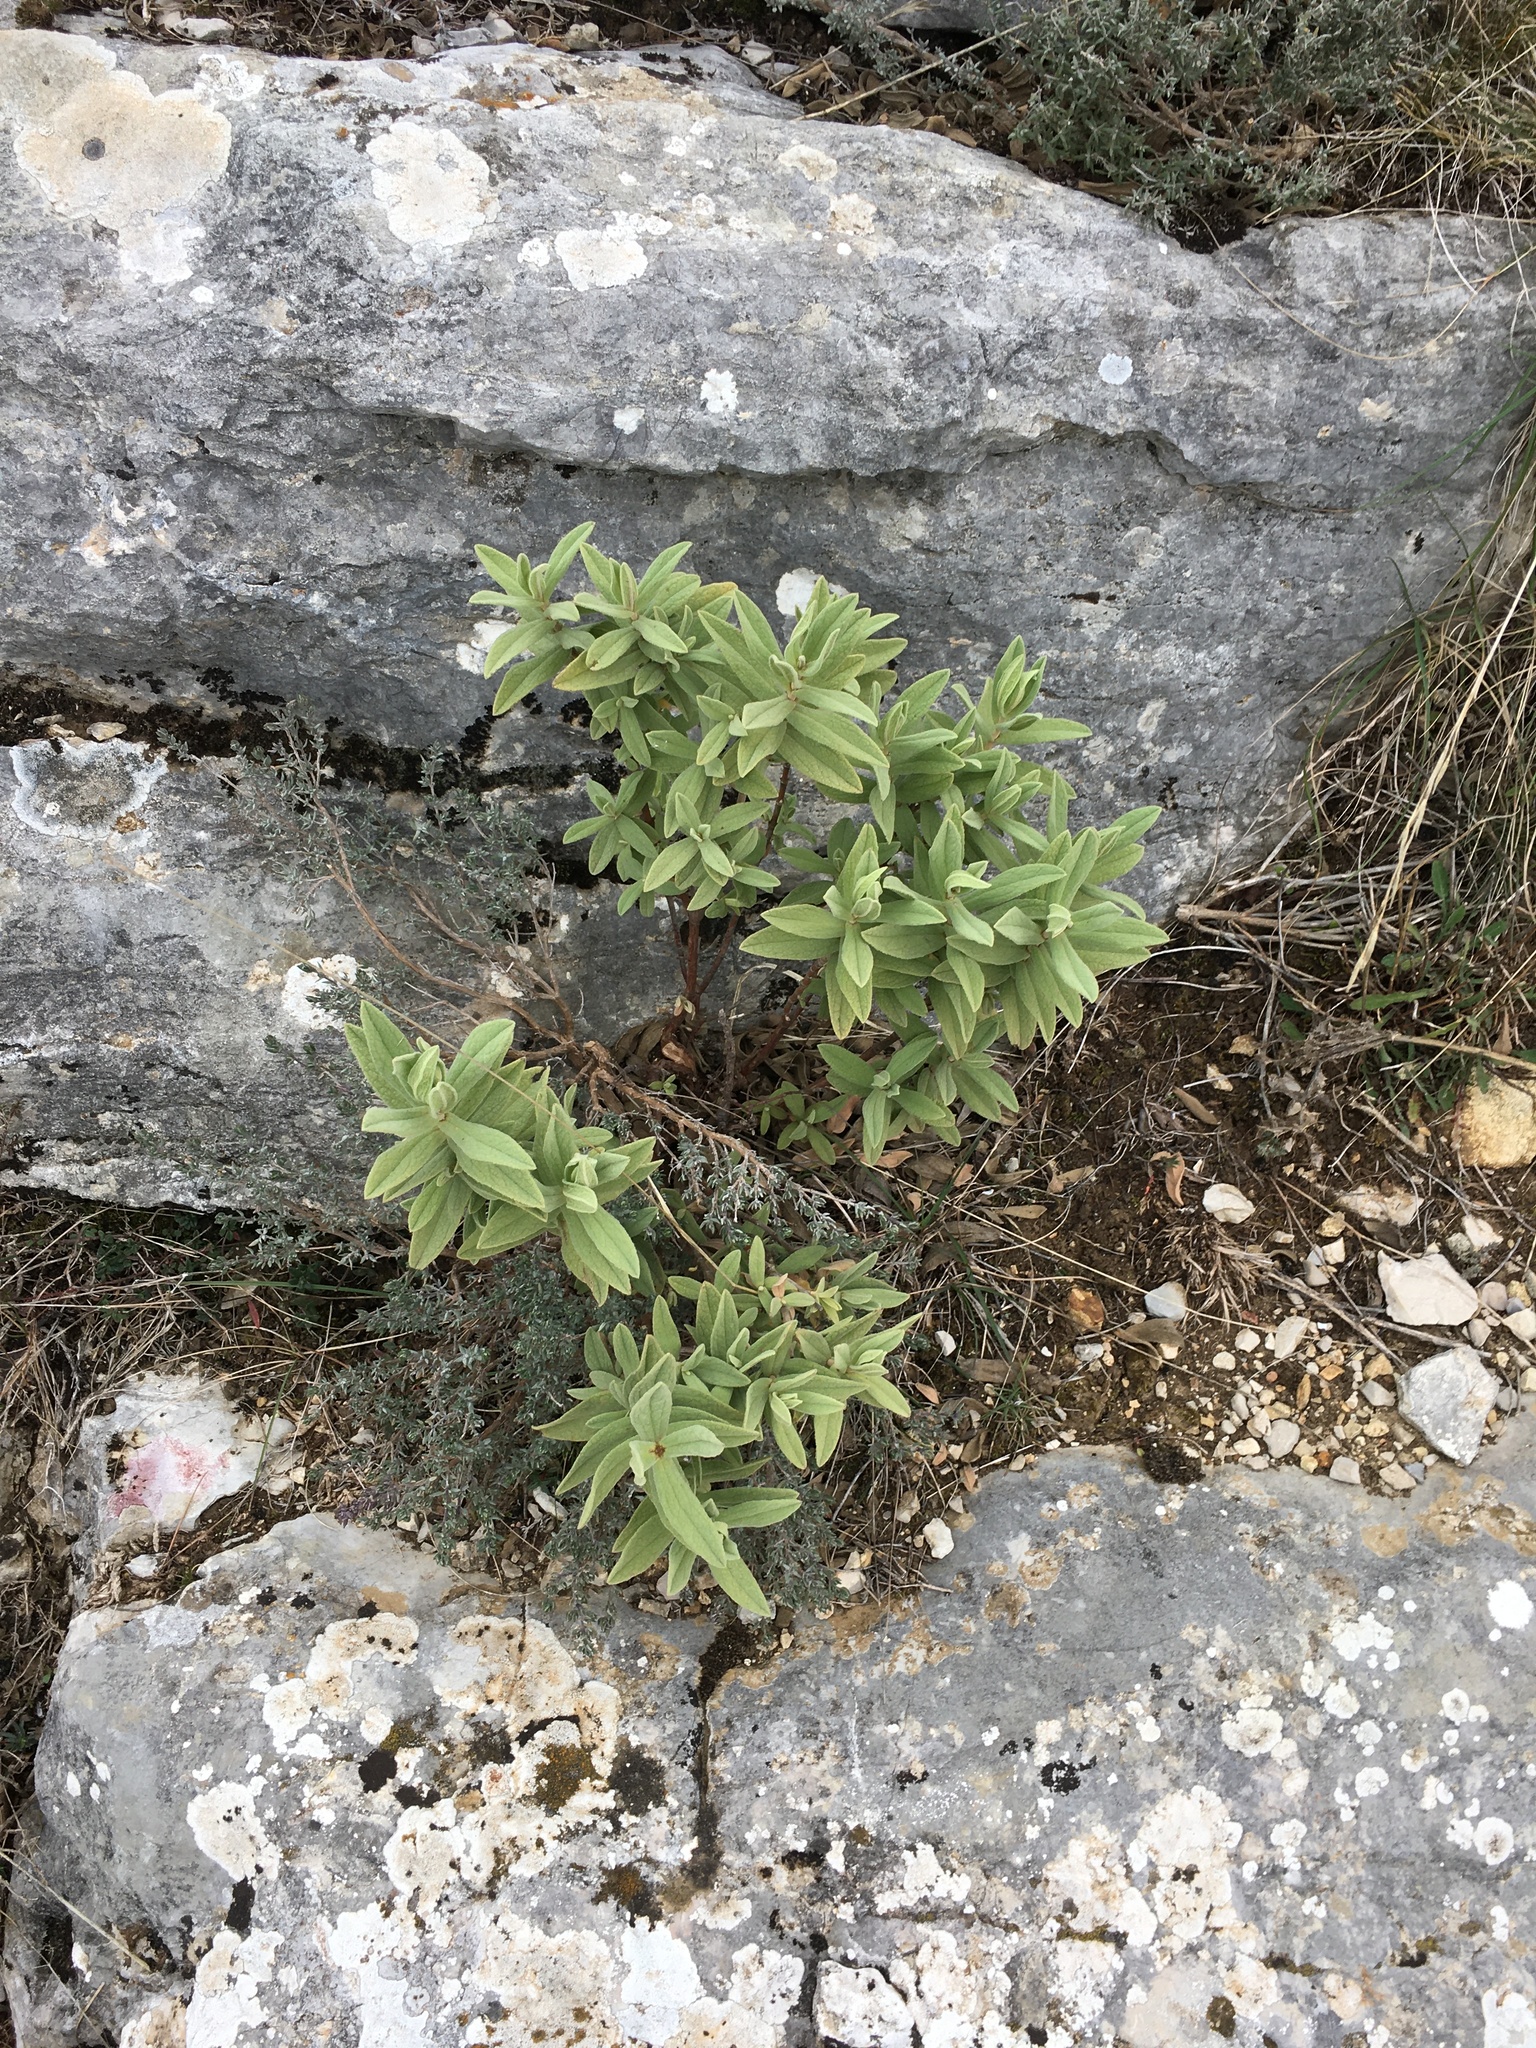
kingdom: Plantae
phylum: Tracheophyta
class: Magnoliopsida
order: Malvales
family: Cistaceae
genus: Cistus
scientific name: Cistus albidus
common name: White-leaf rock-rose
